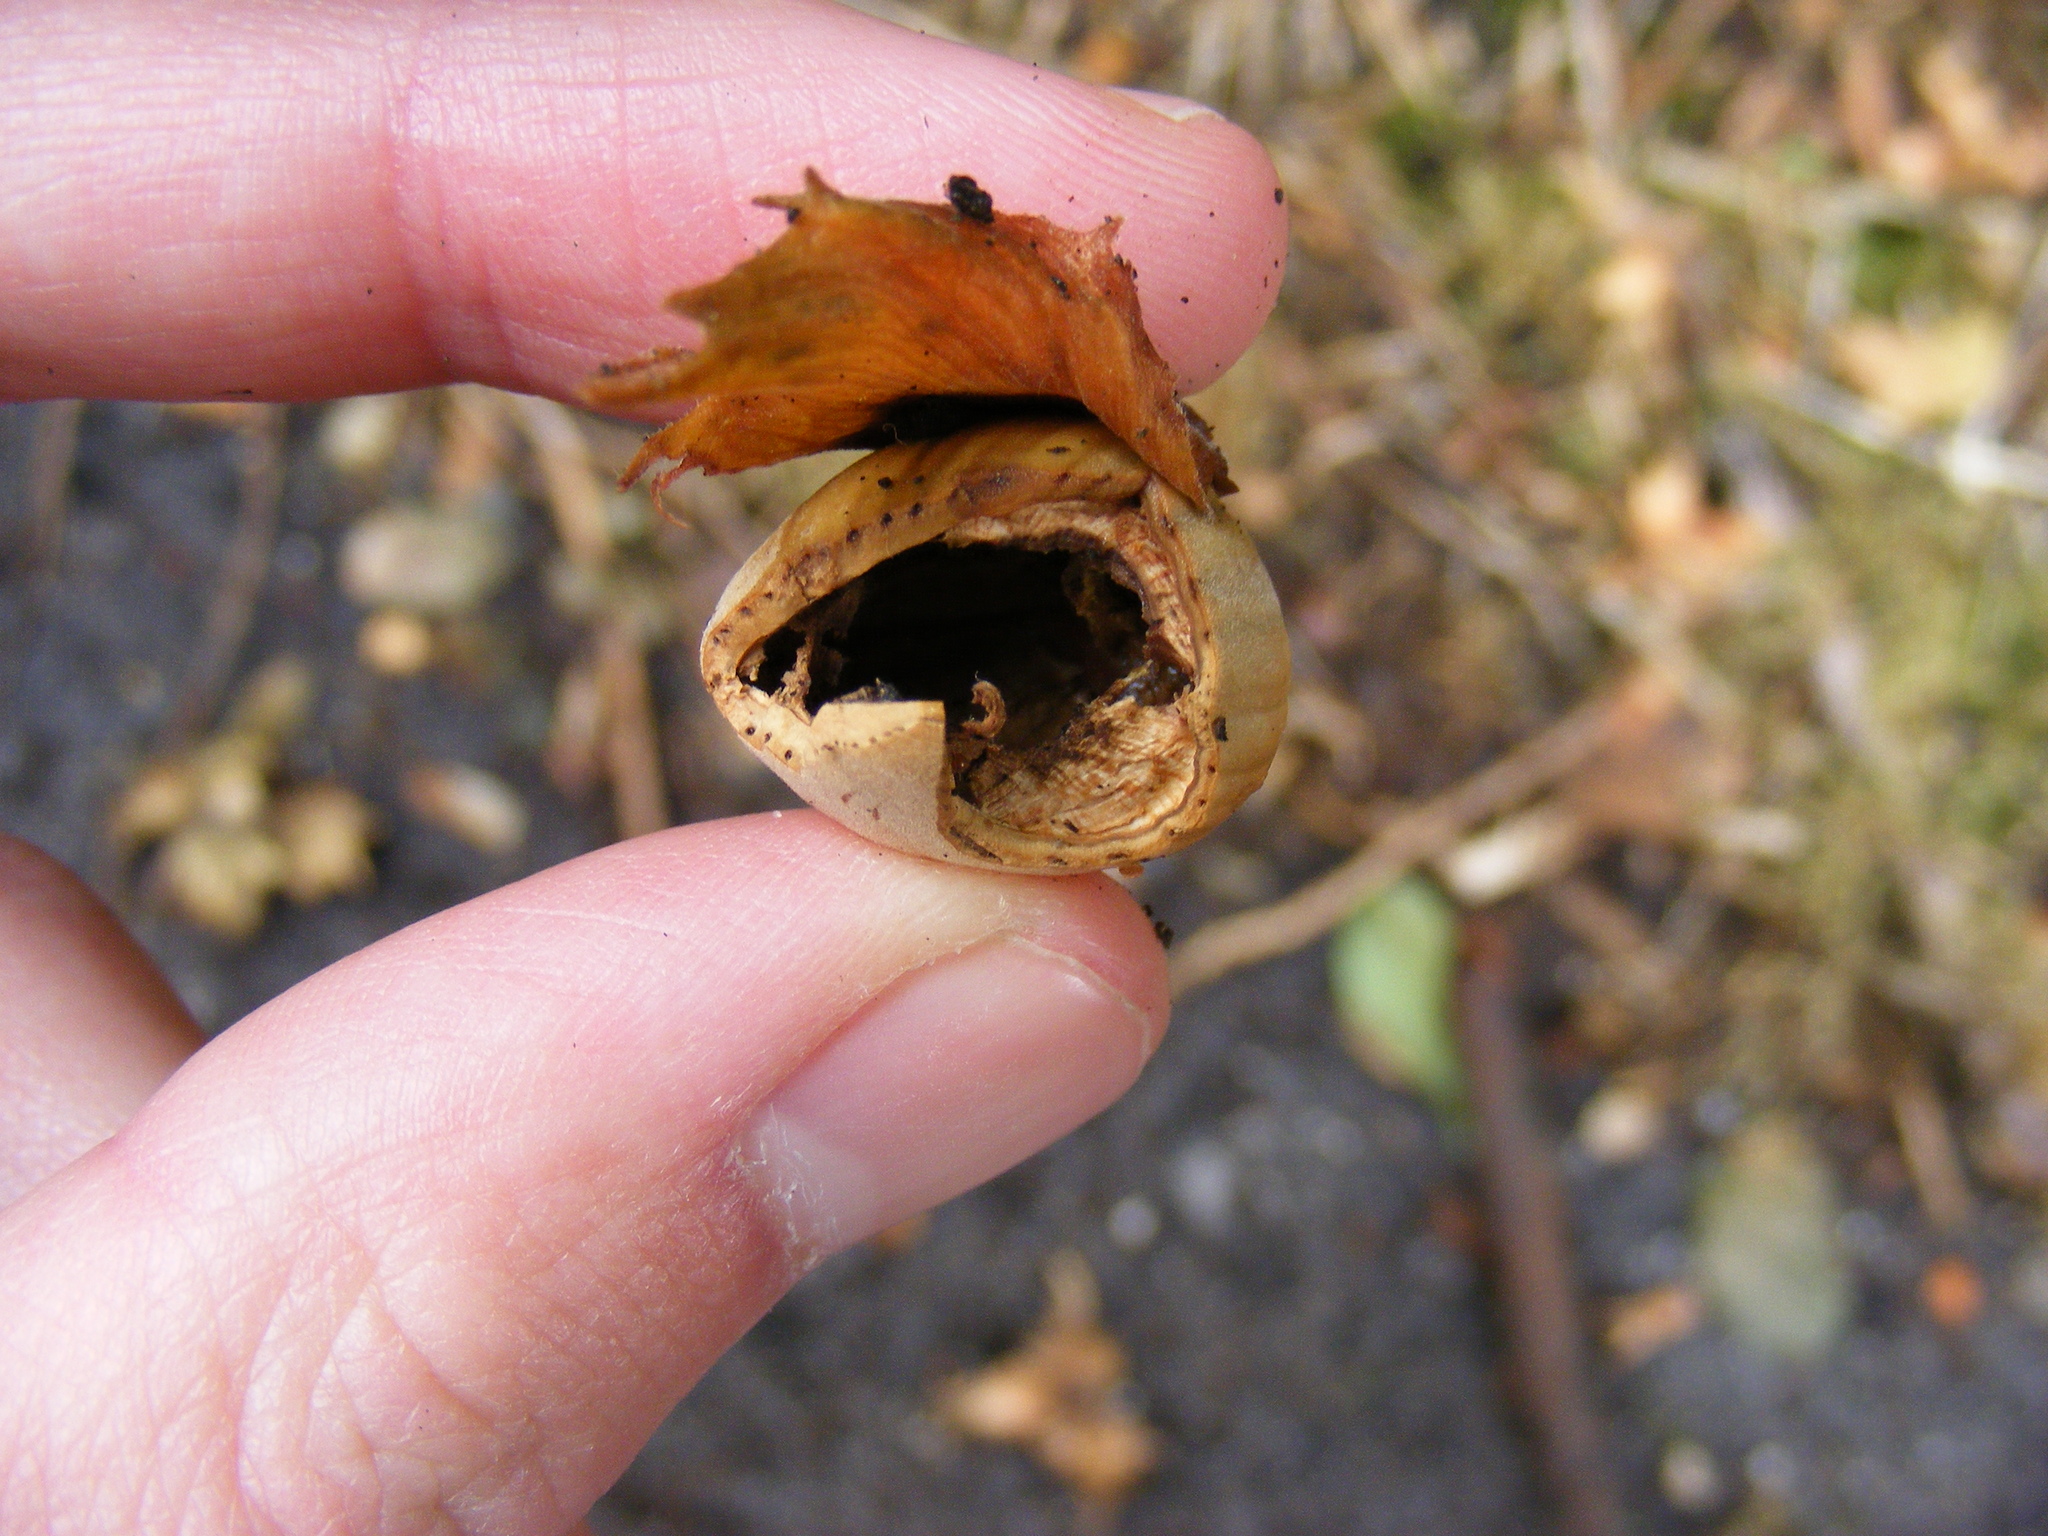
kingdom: Plantae
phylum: Tracheophyta
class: Magnoliopsida
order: Fagales
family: Betulaceae
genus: Corylus
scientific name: Corylus avellana
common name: European hazel
